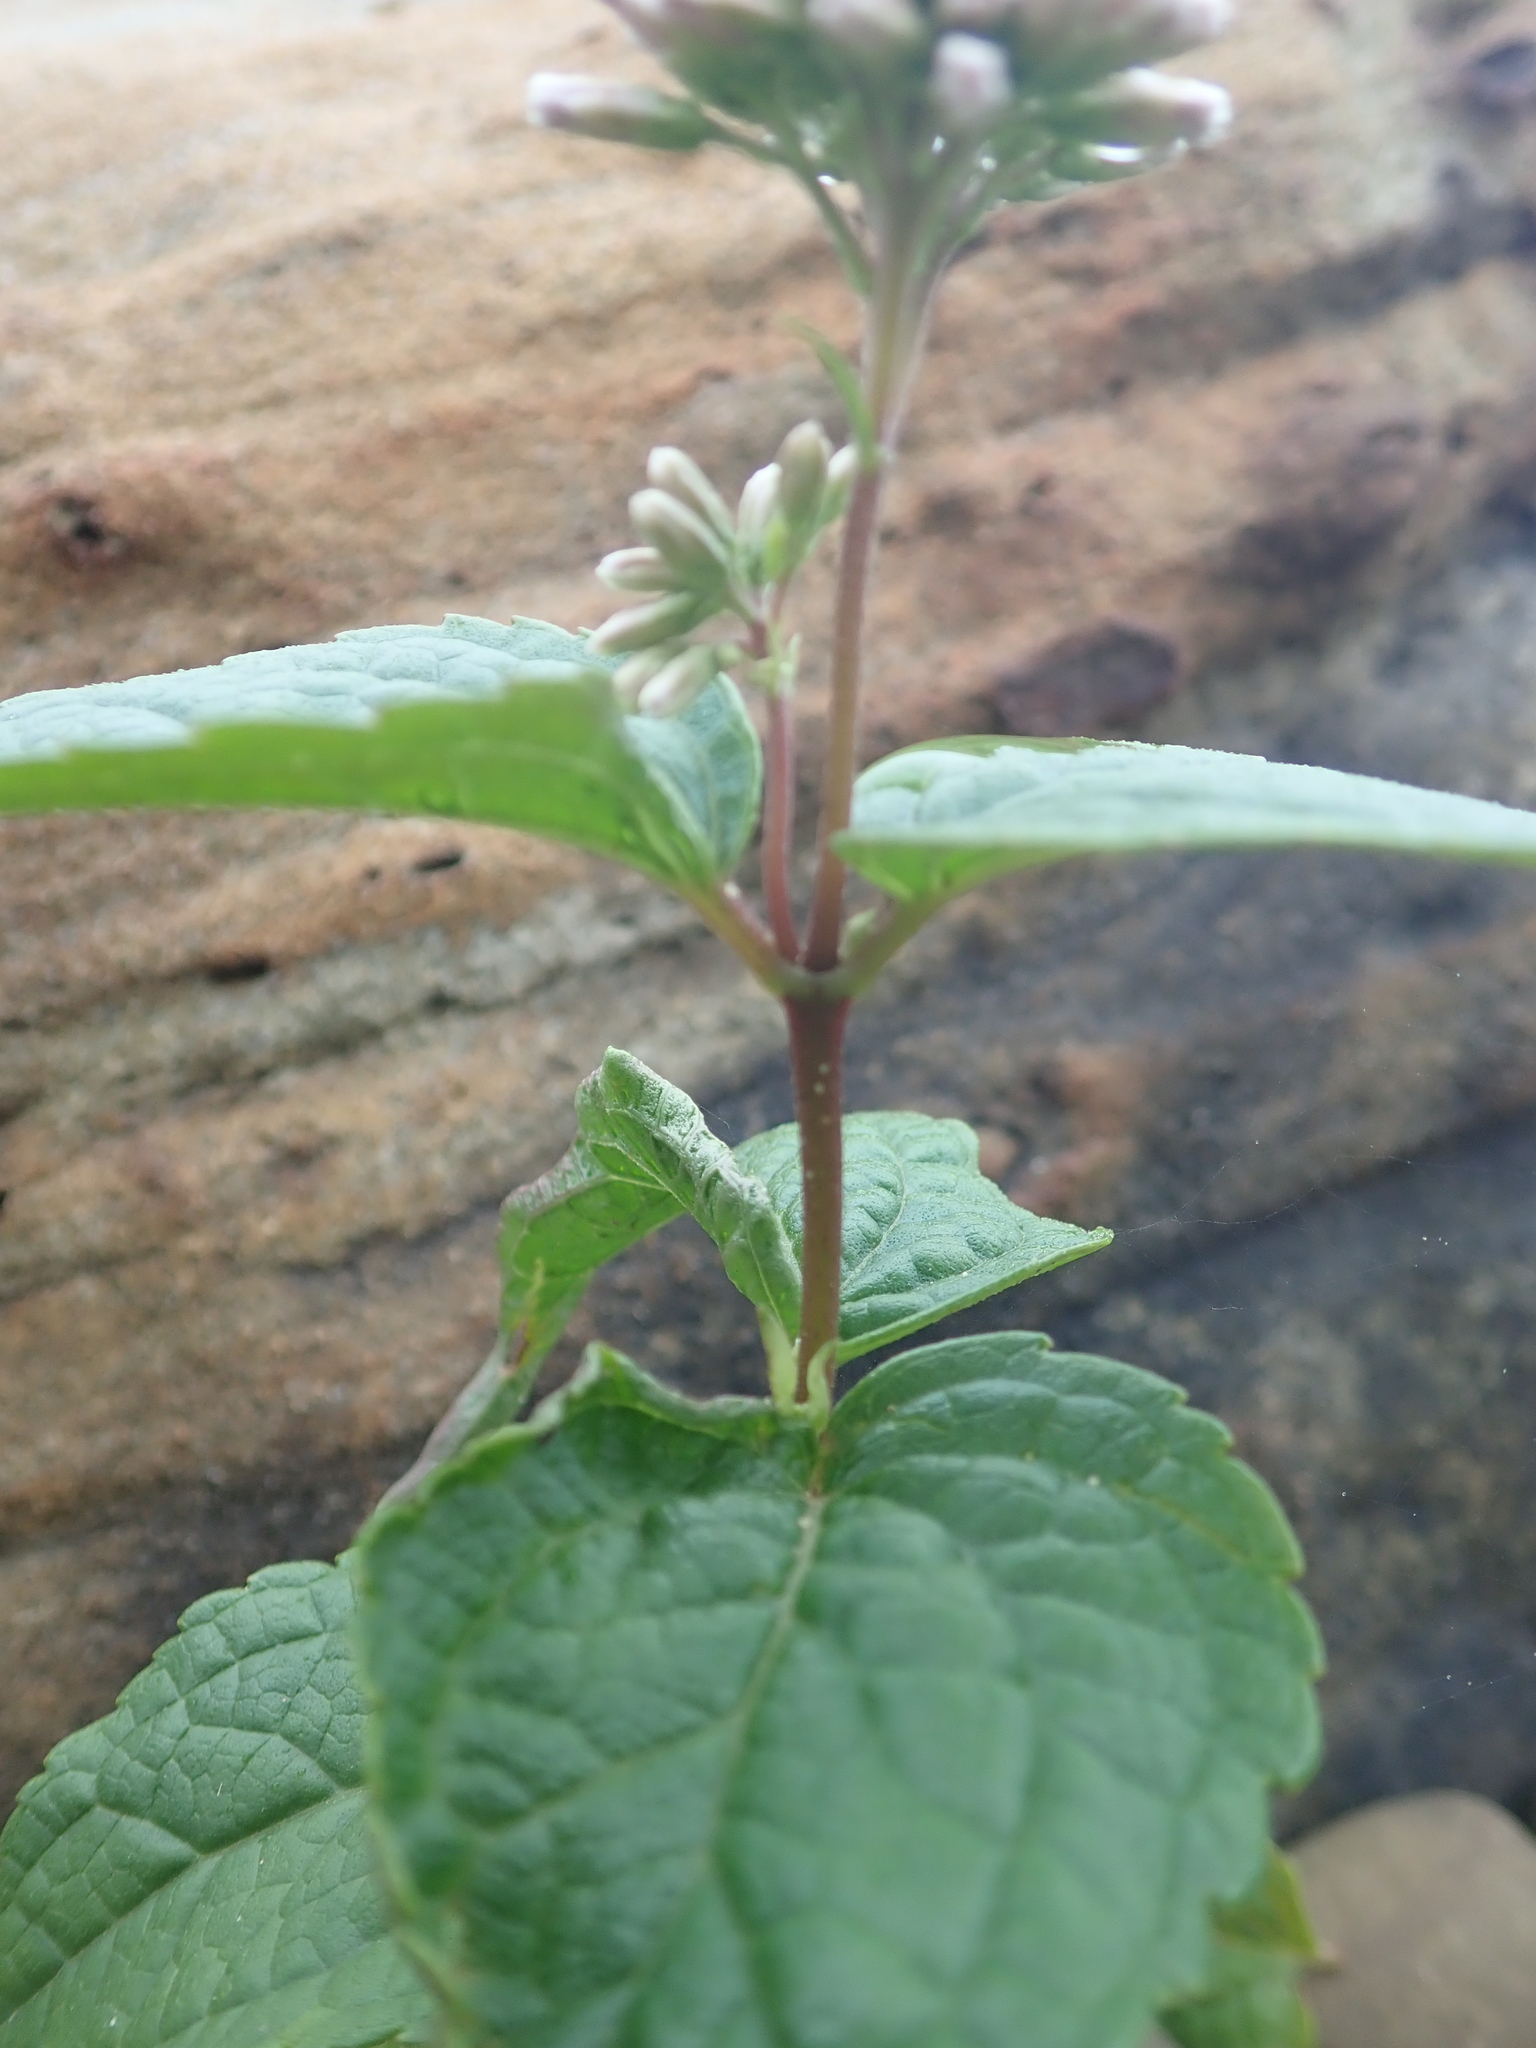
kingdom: Plantae
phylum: Tracheophyta
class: Magnoliopsida
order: Asterales
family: Asteraceae
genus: Eupatorium
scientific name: Eupatorium luchuense
